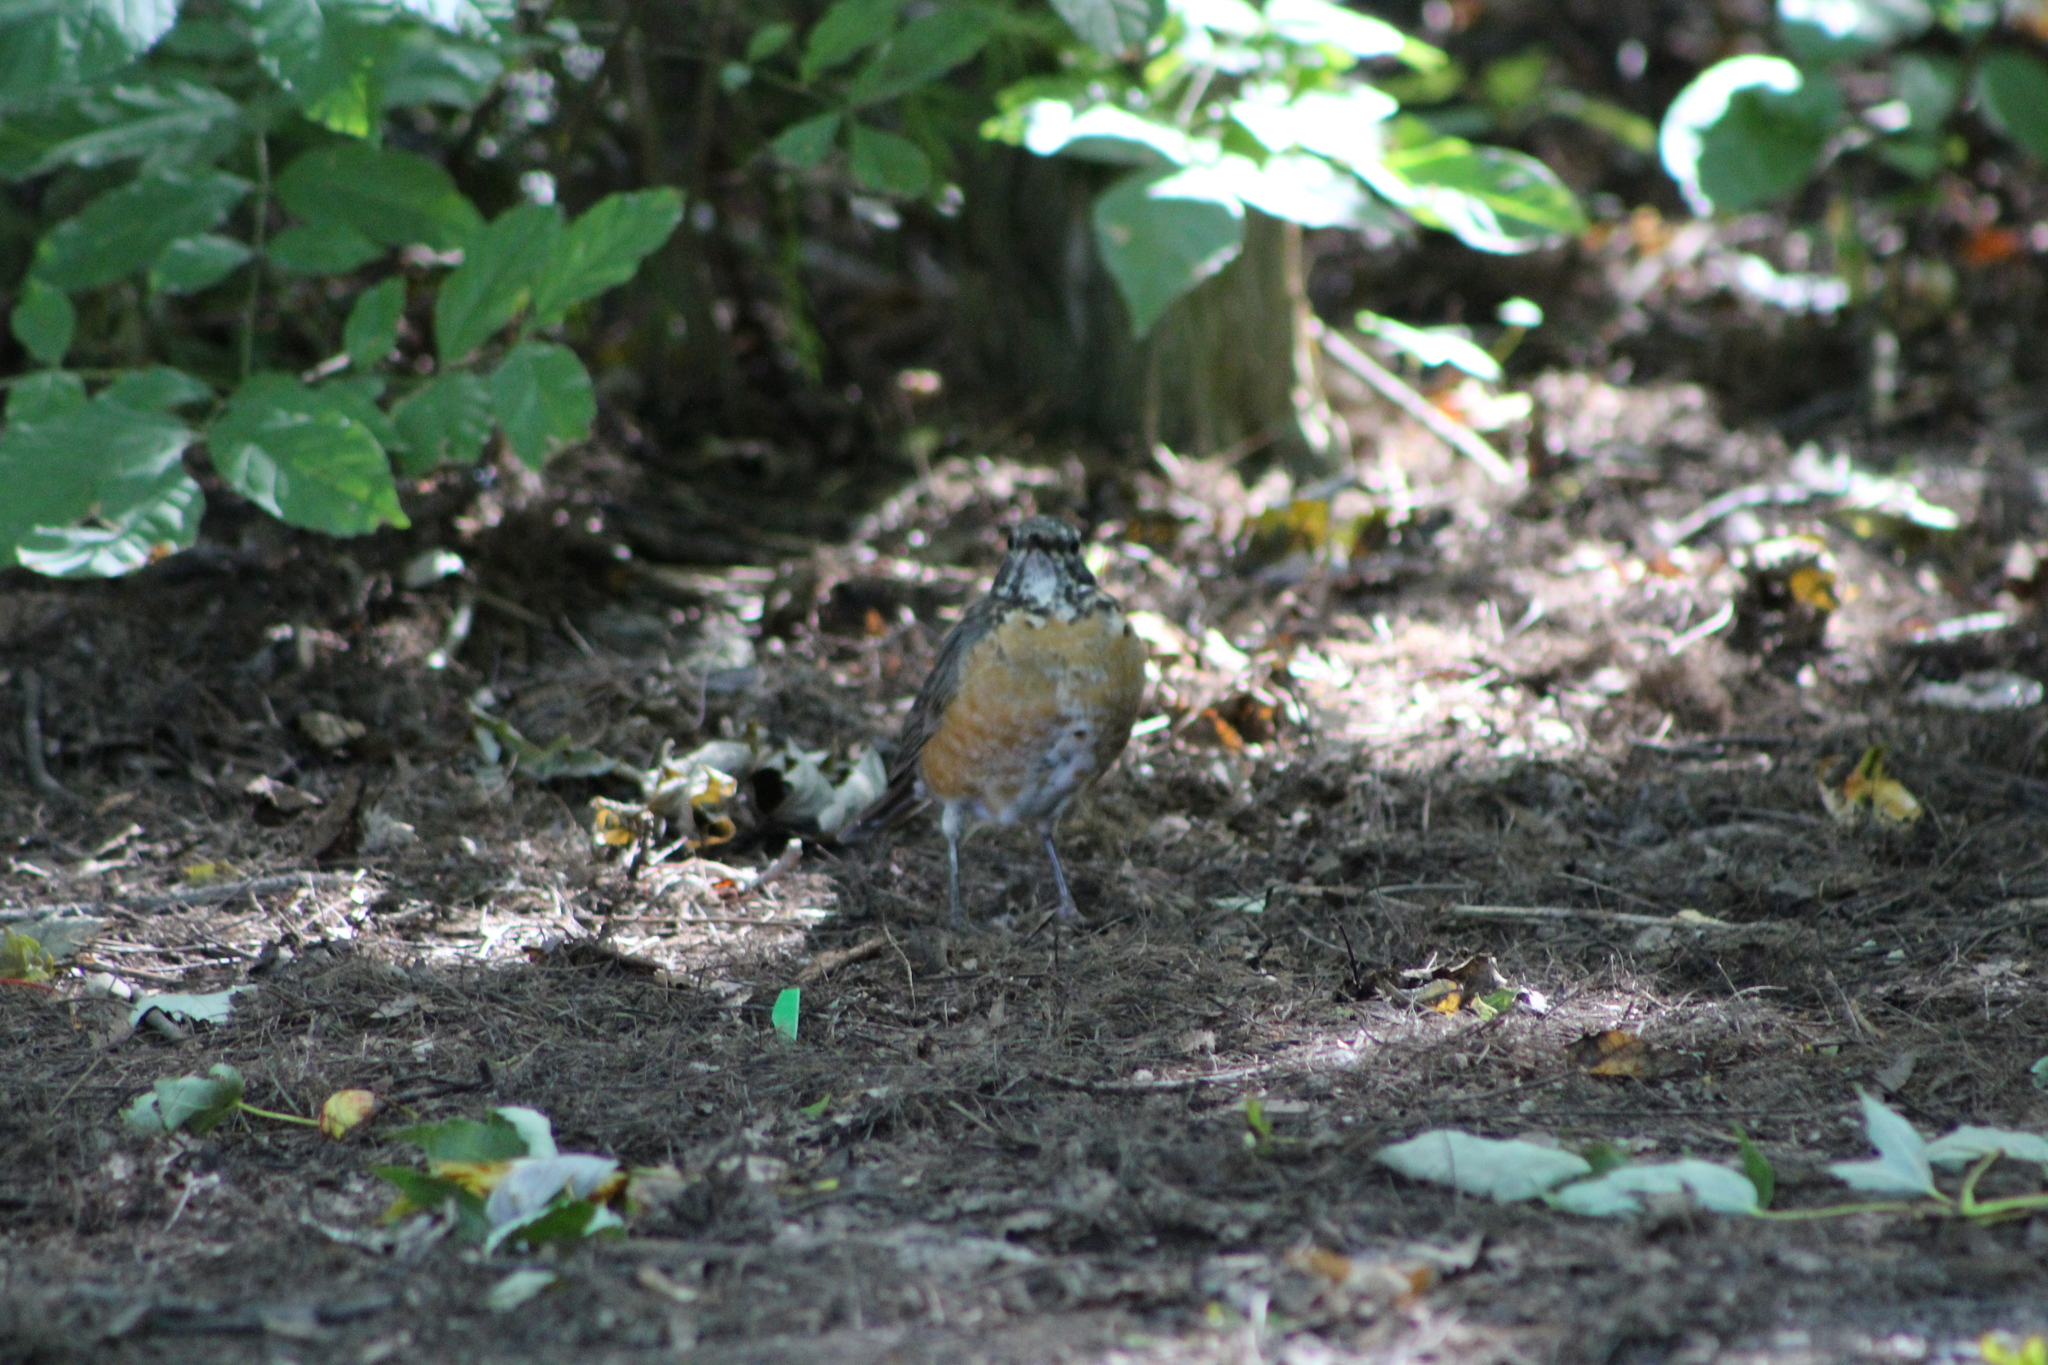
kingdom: Animalia
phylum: Chordata
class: Aves
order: Passeriformes
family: Turdidae
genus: Turdus
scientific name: Turdus migratorius
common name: American robin
